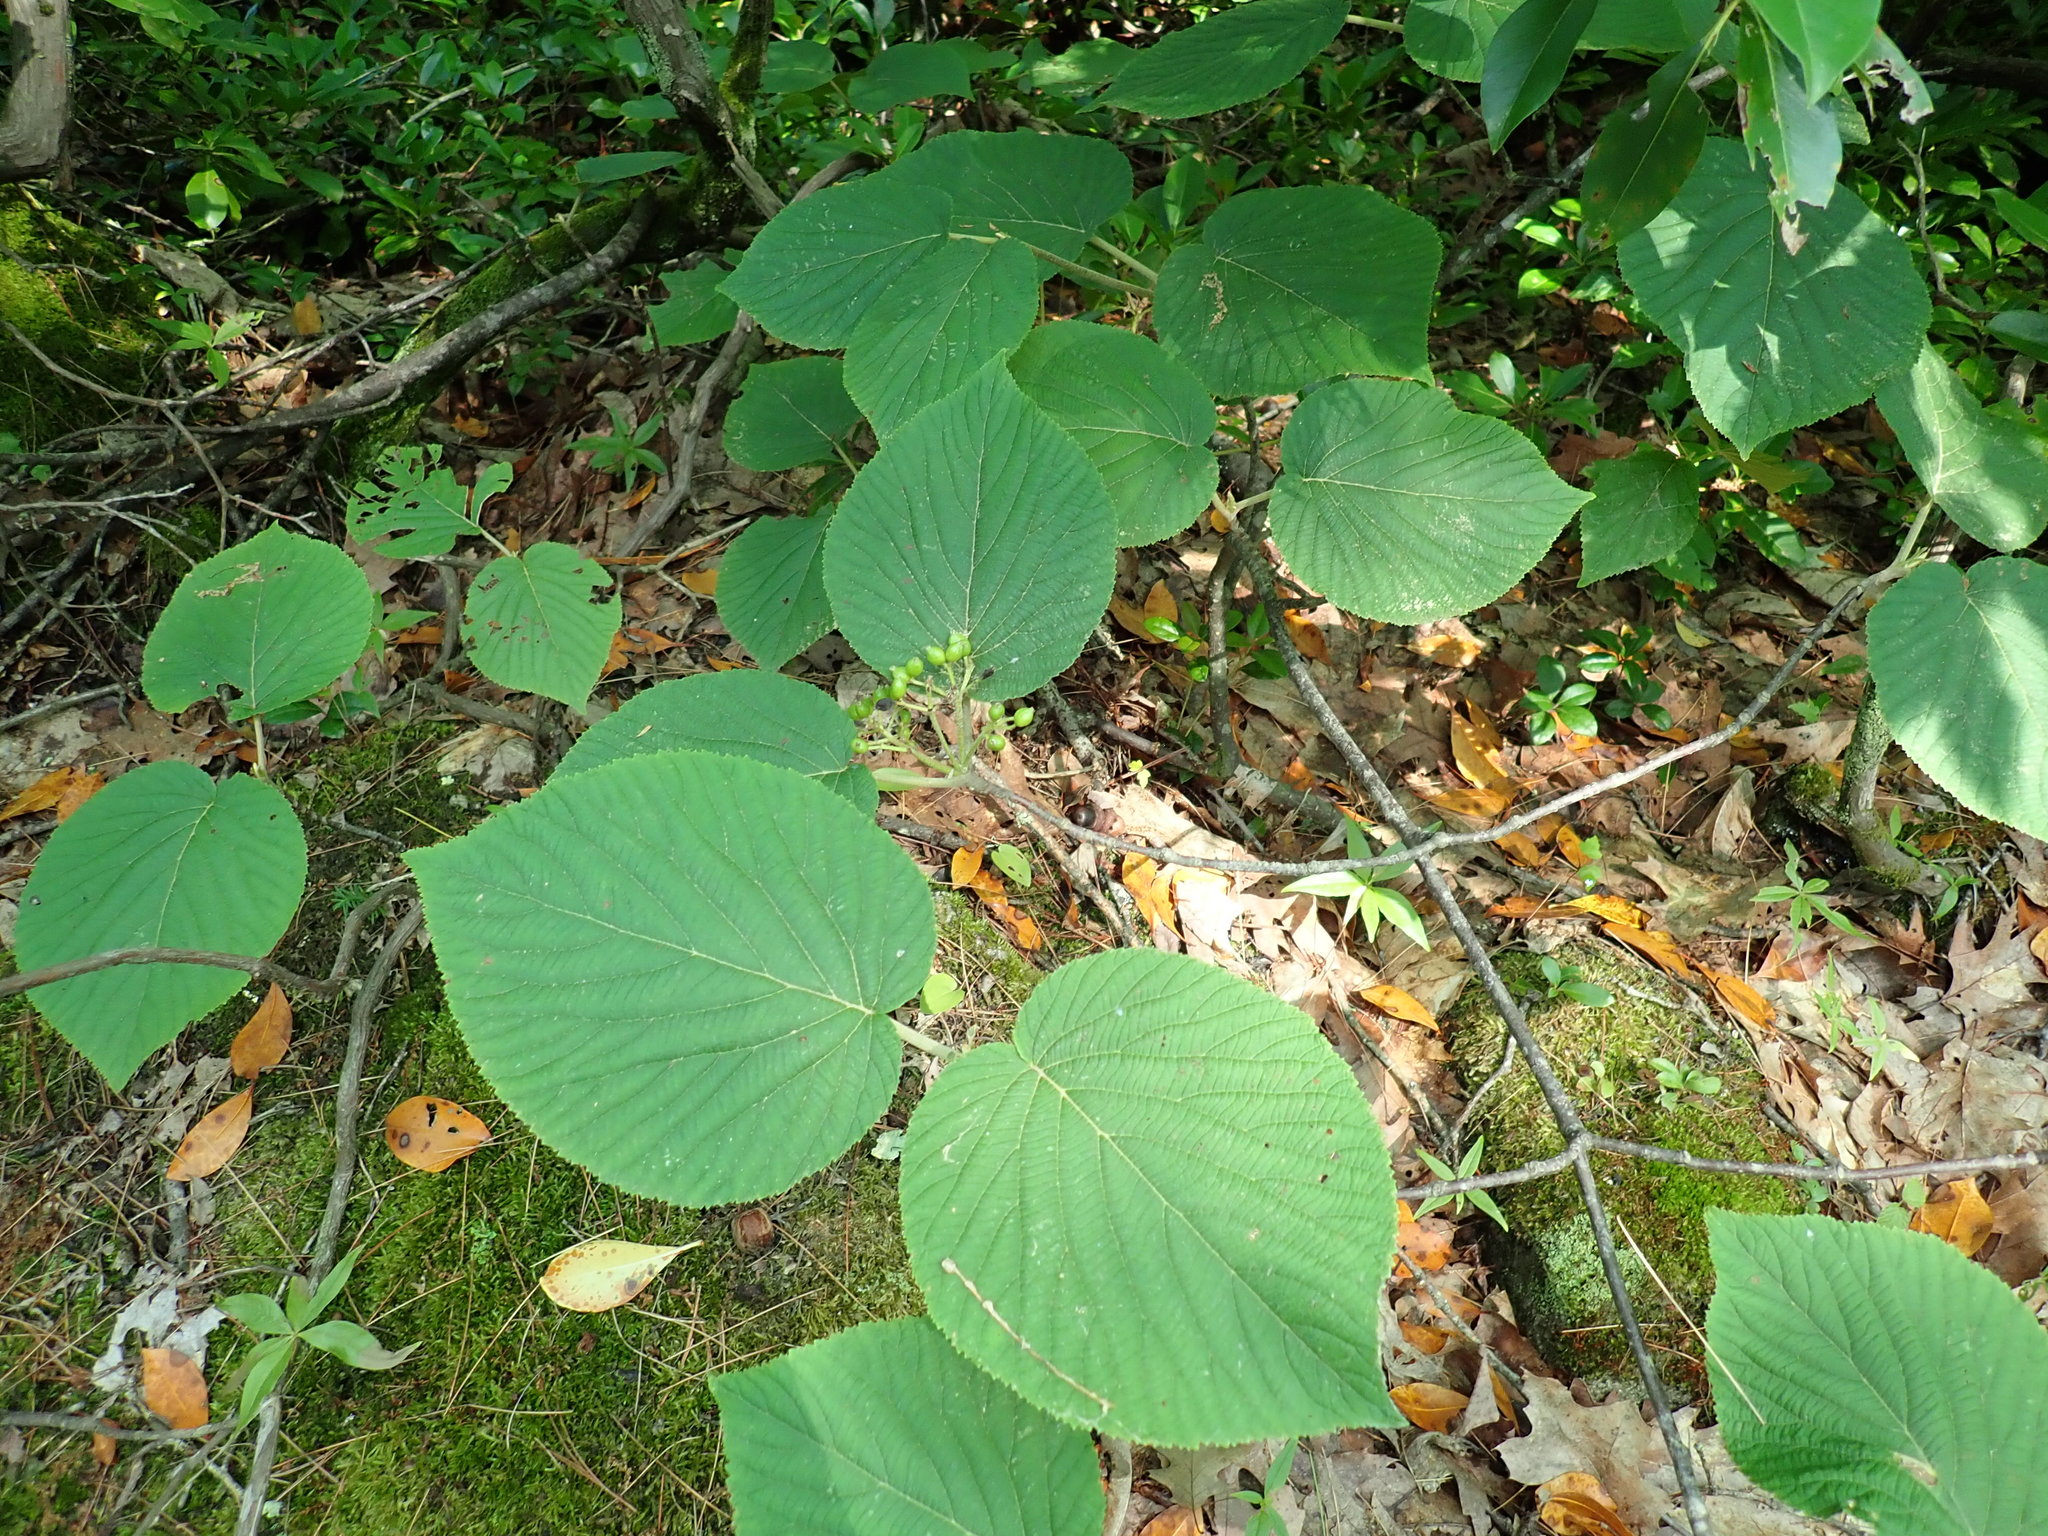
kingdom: Plantae
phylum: Tracheophyta
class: Magnoliopsida
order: Dipsacales
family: Viburnaceae
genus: Viburnum
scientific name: Viburnum lantanoides
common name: Hobblebush
